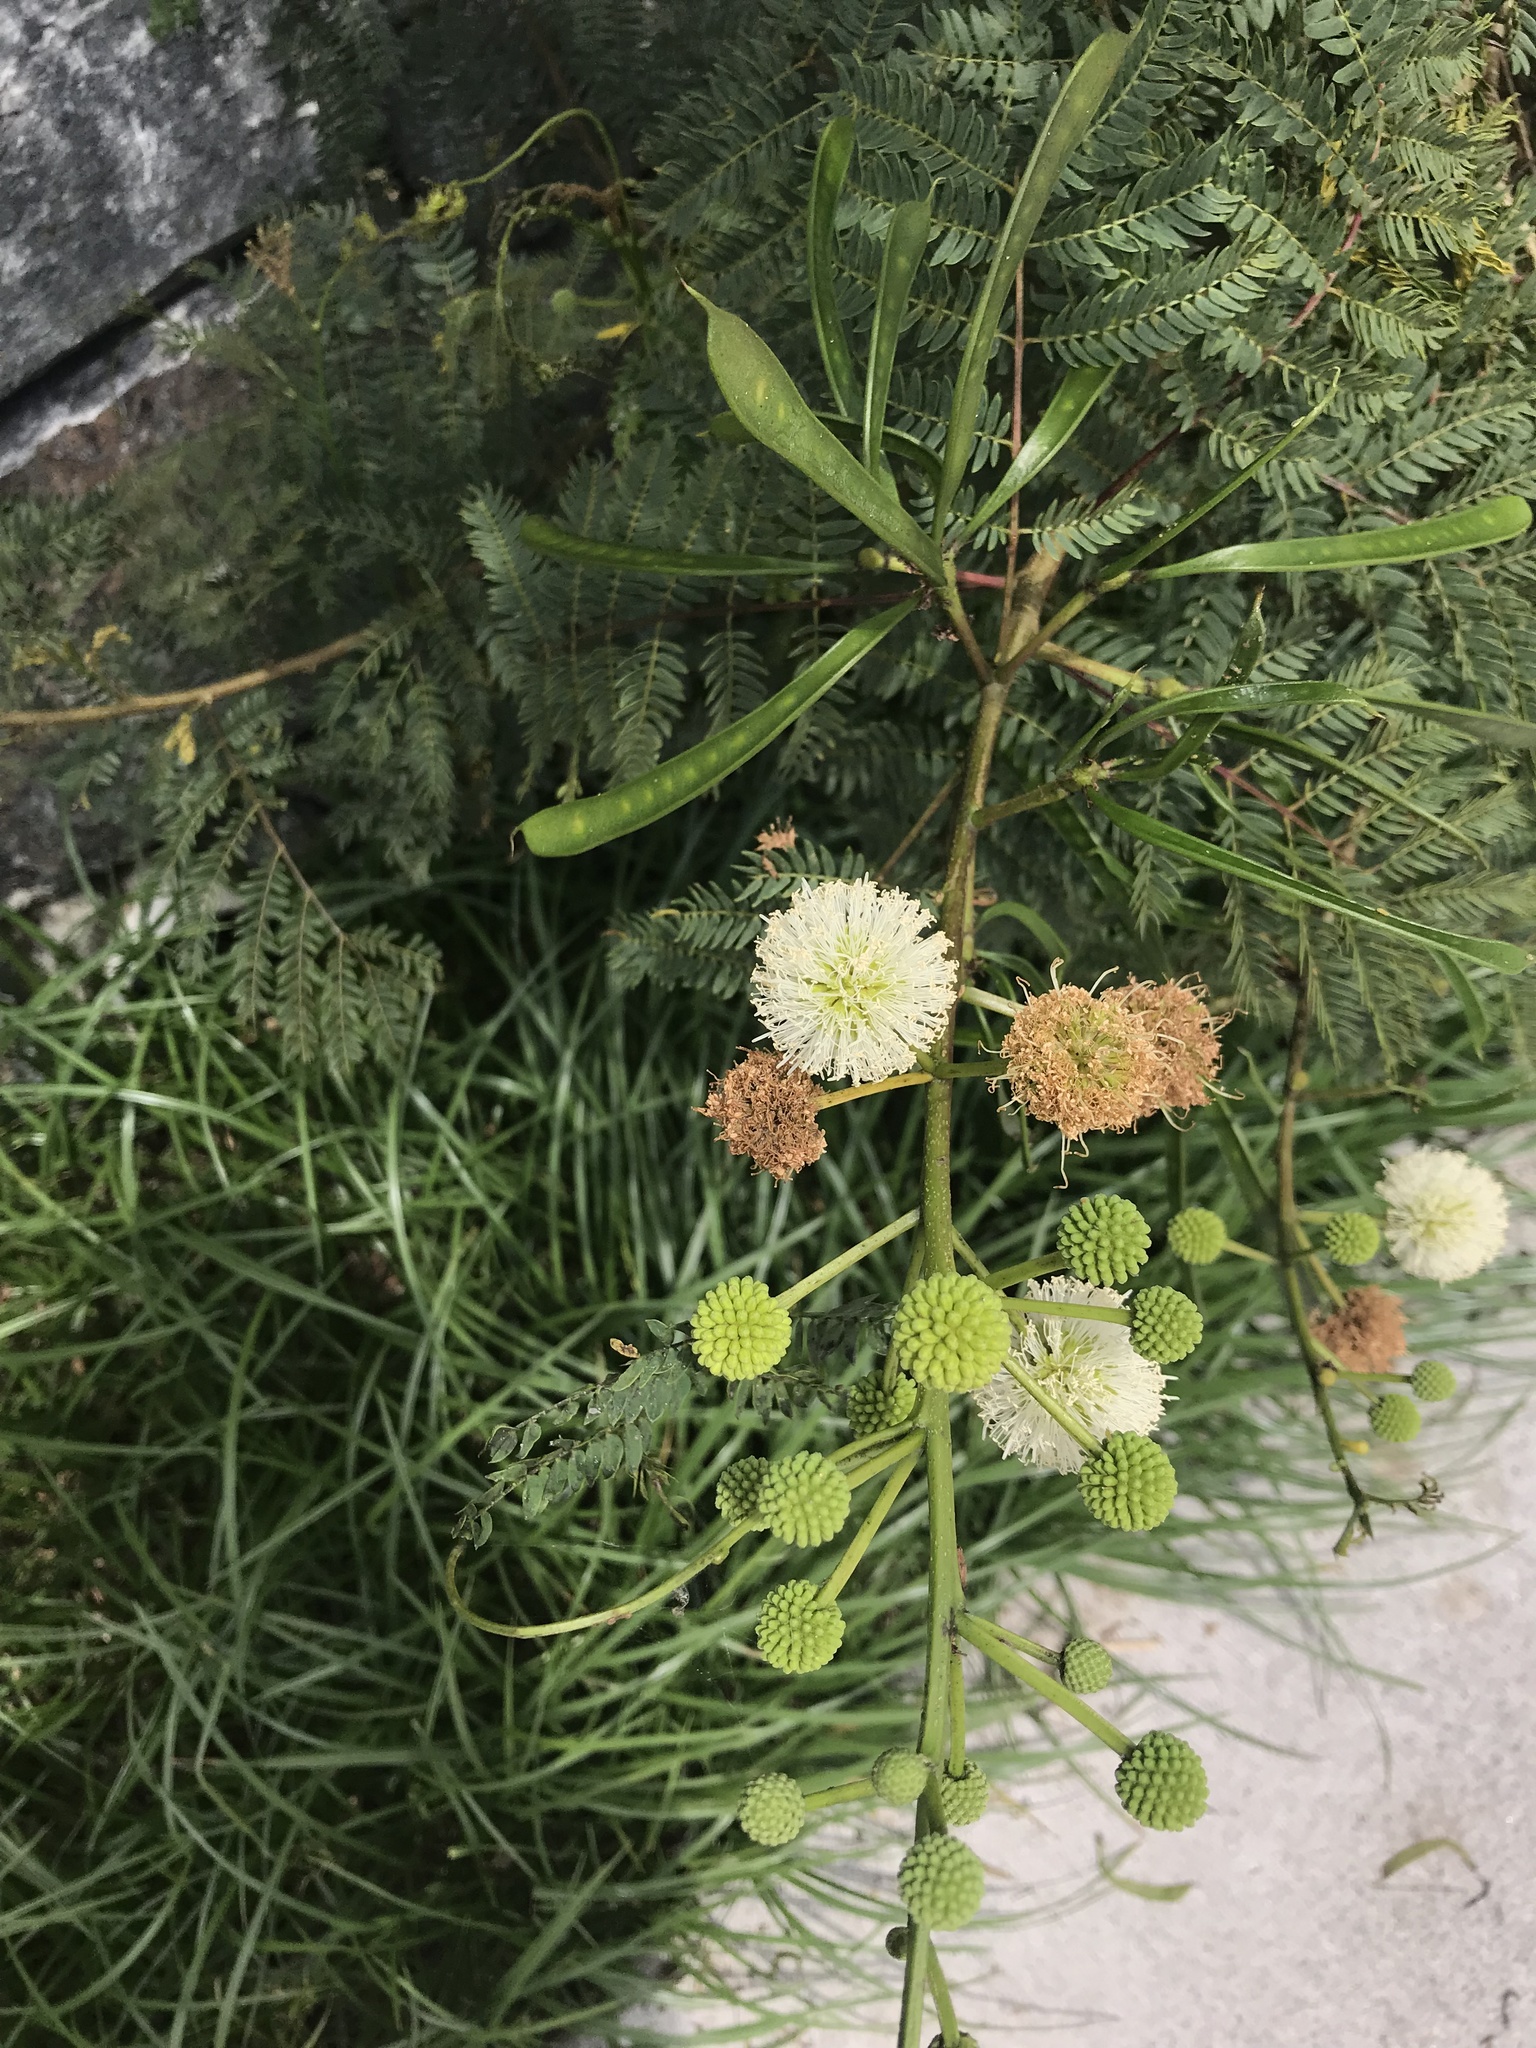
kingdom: Plantae
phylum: Tracheophyta
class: Magnoliopsida
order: Fabales
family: Fabaceae
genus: Leucaena
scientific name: Leucaena leucocephala
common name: White leadtree
